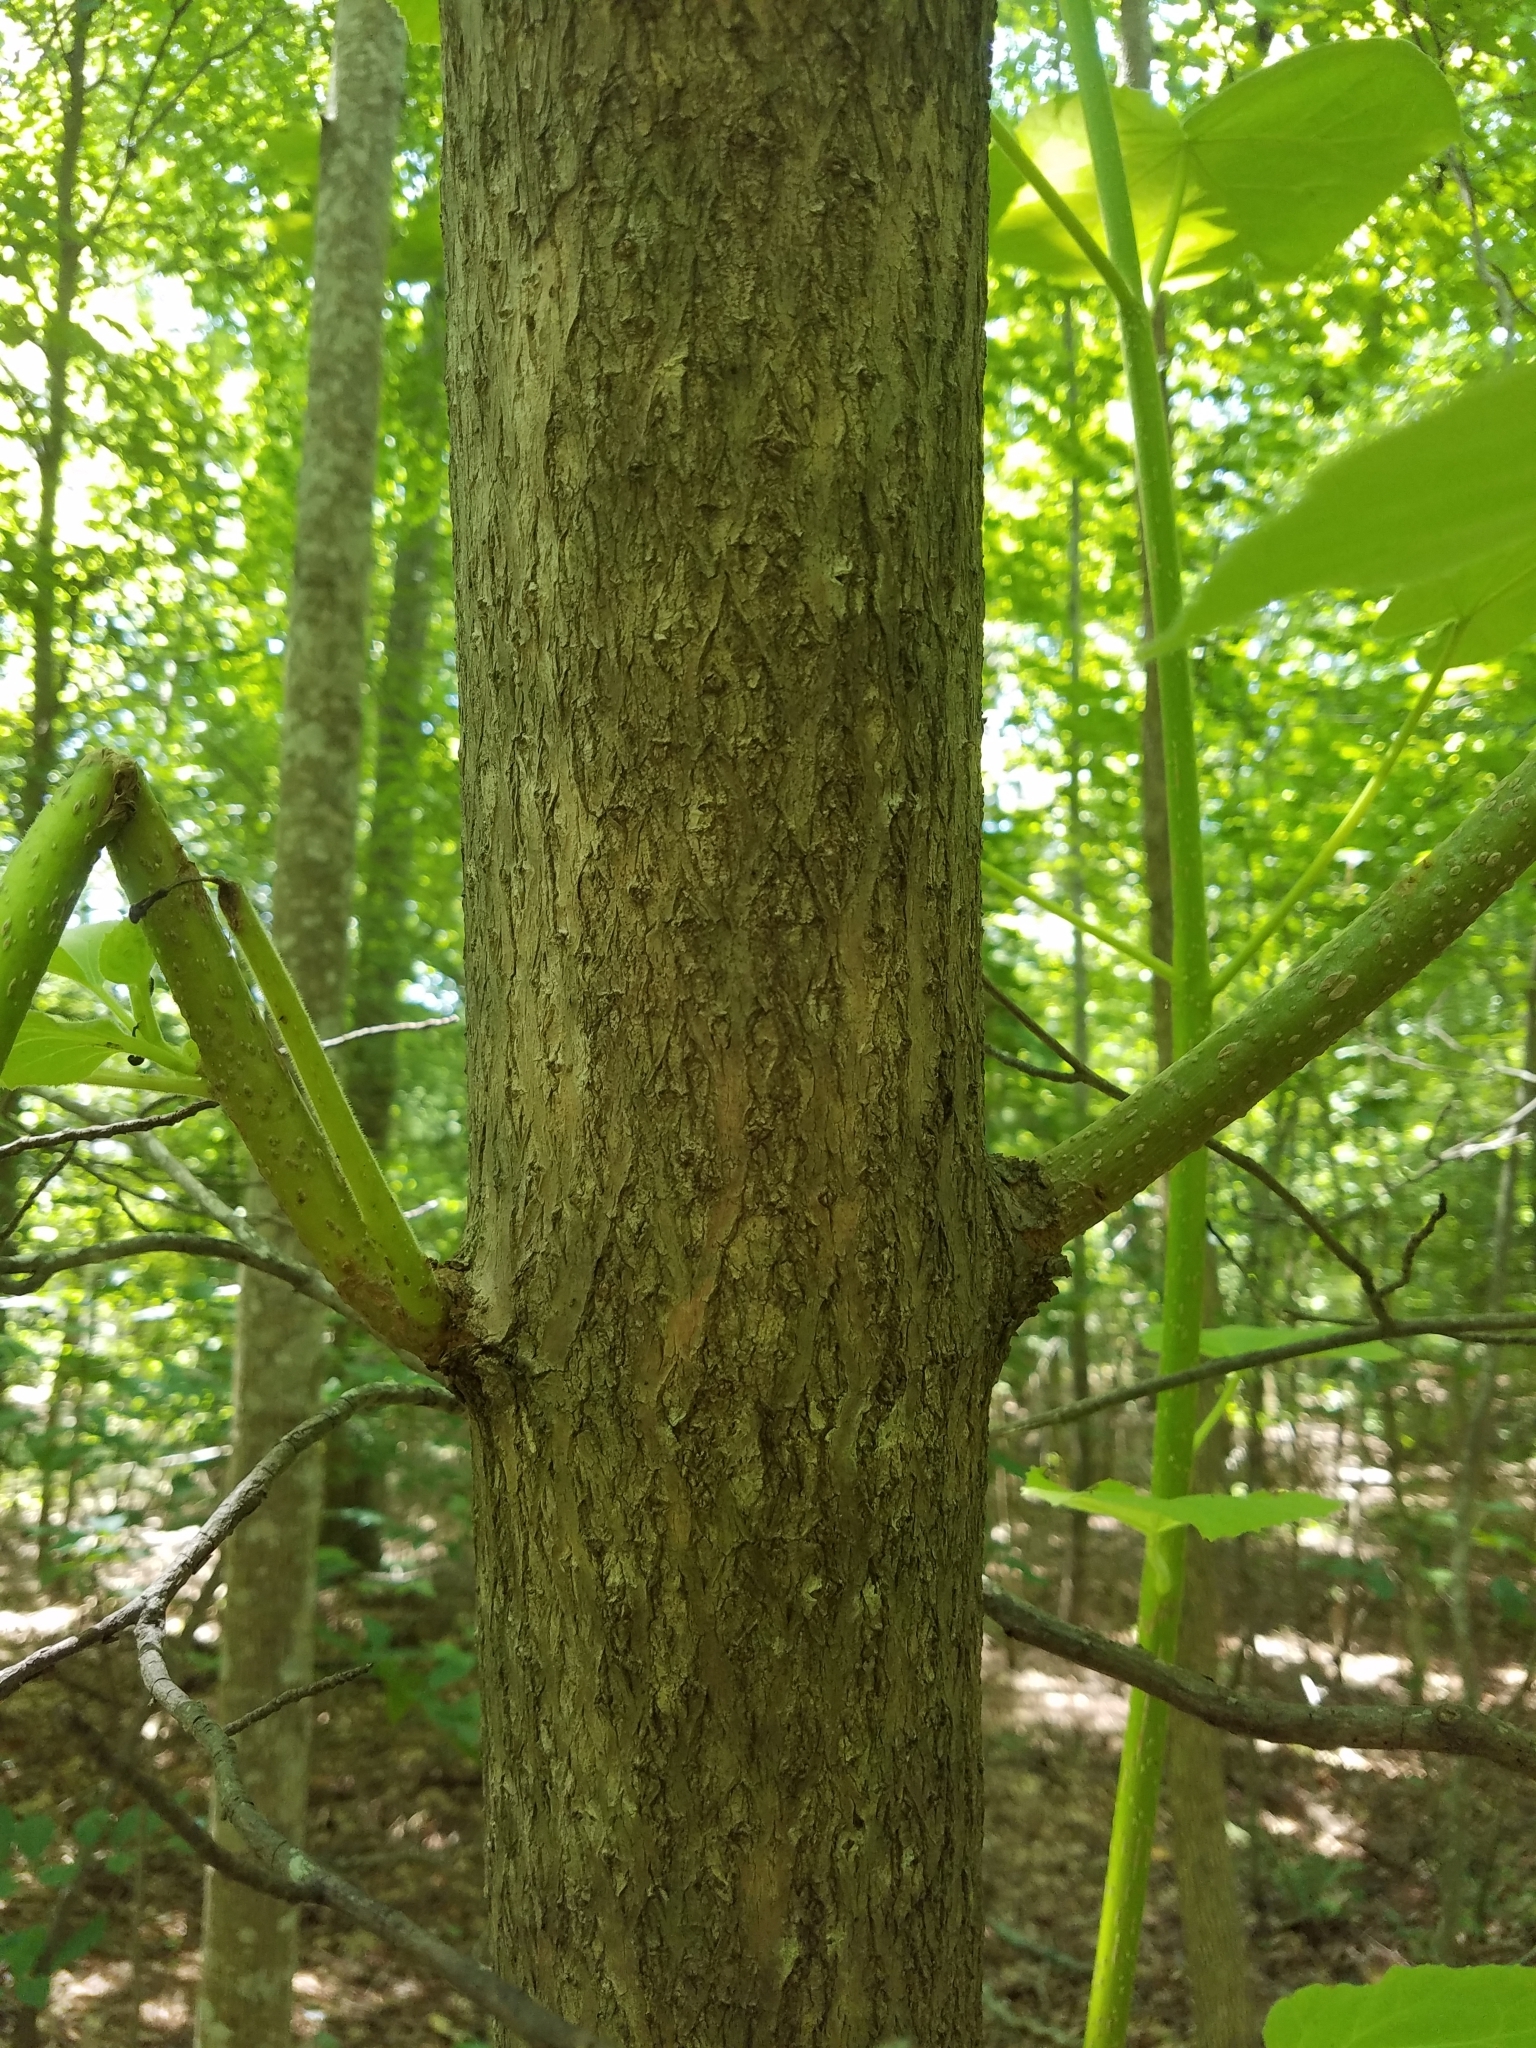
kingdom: Plantae
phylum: Tracheophyta
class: Magnoliopsida
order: Lamiales
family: Paulowniaceae
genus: Paulownia
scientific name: Paulownia tomentosa
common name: Foxglove-tree
